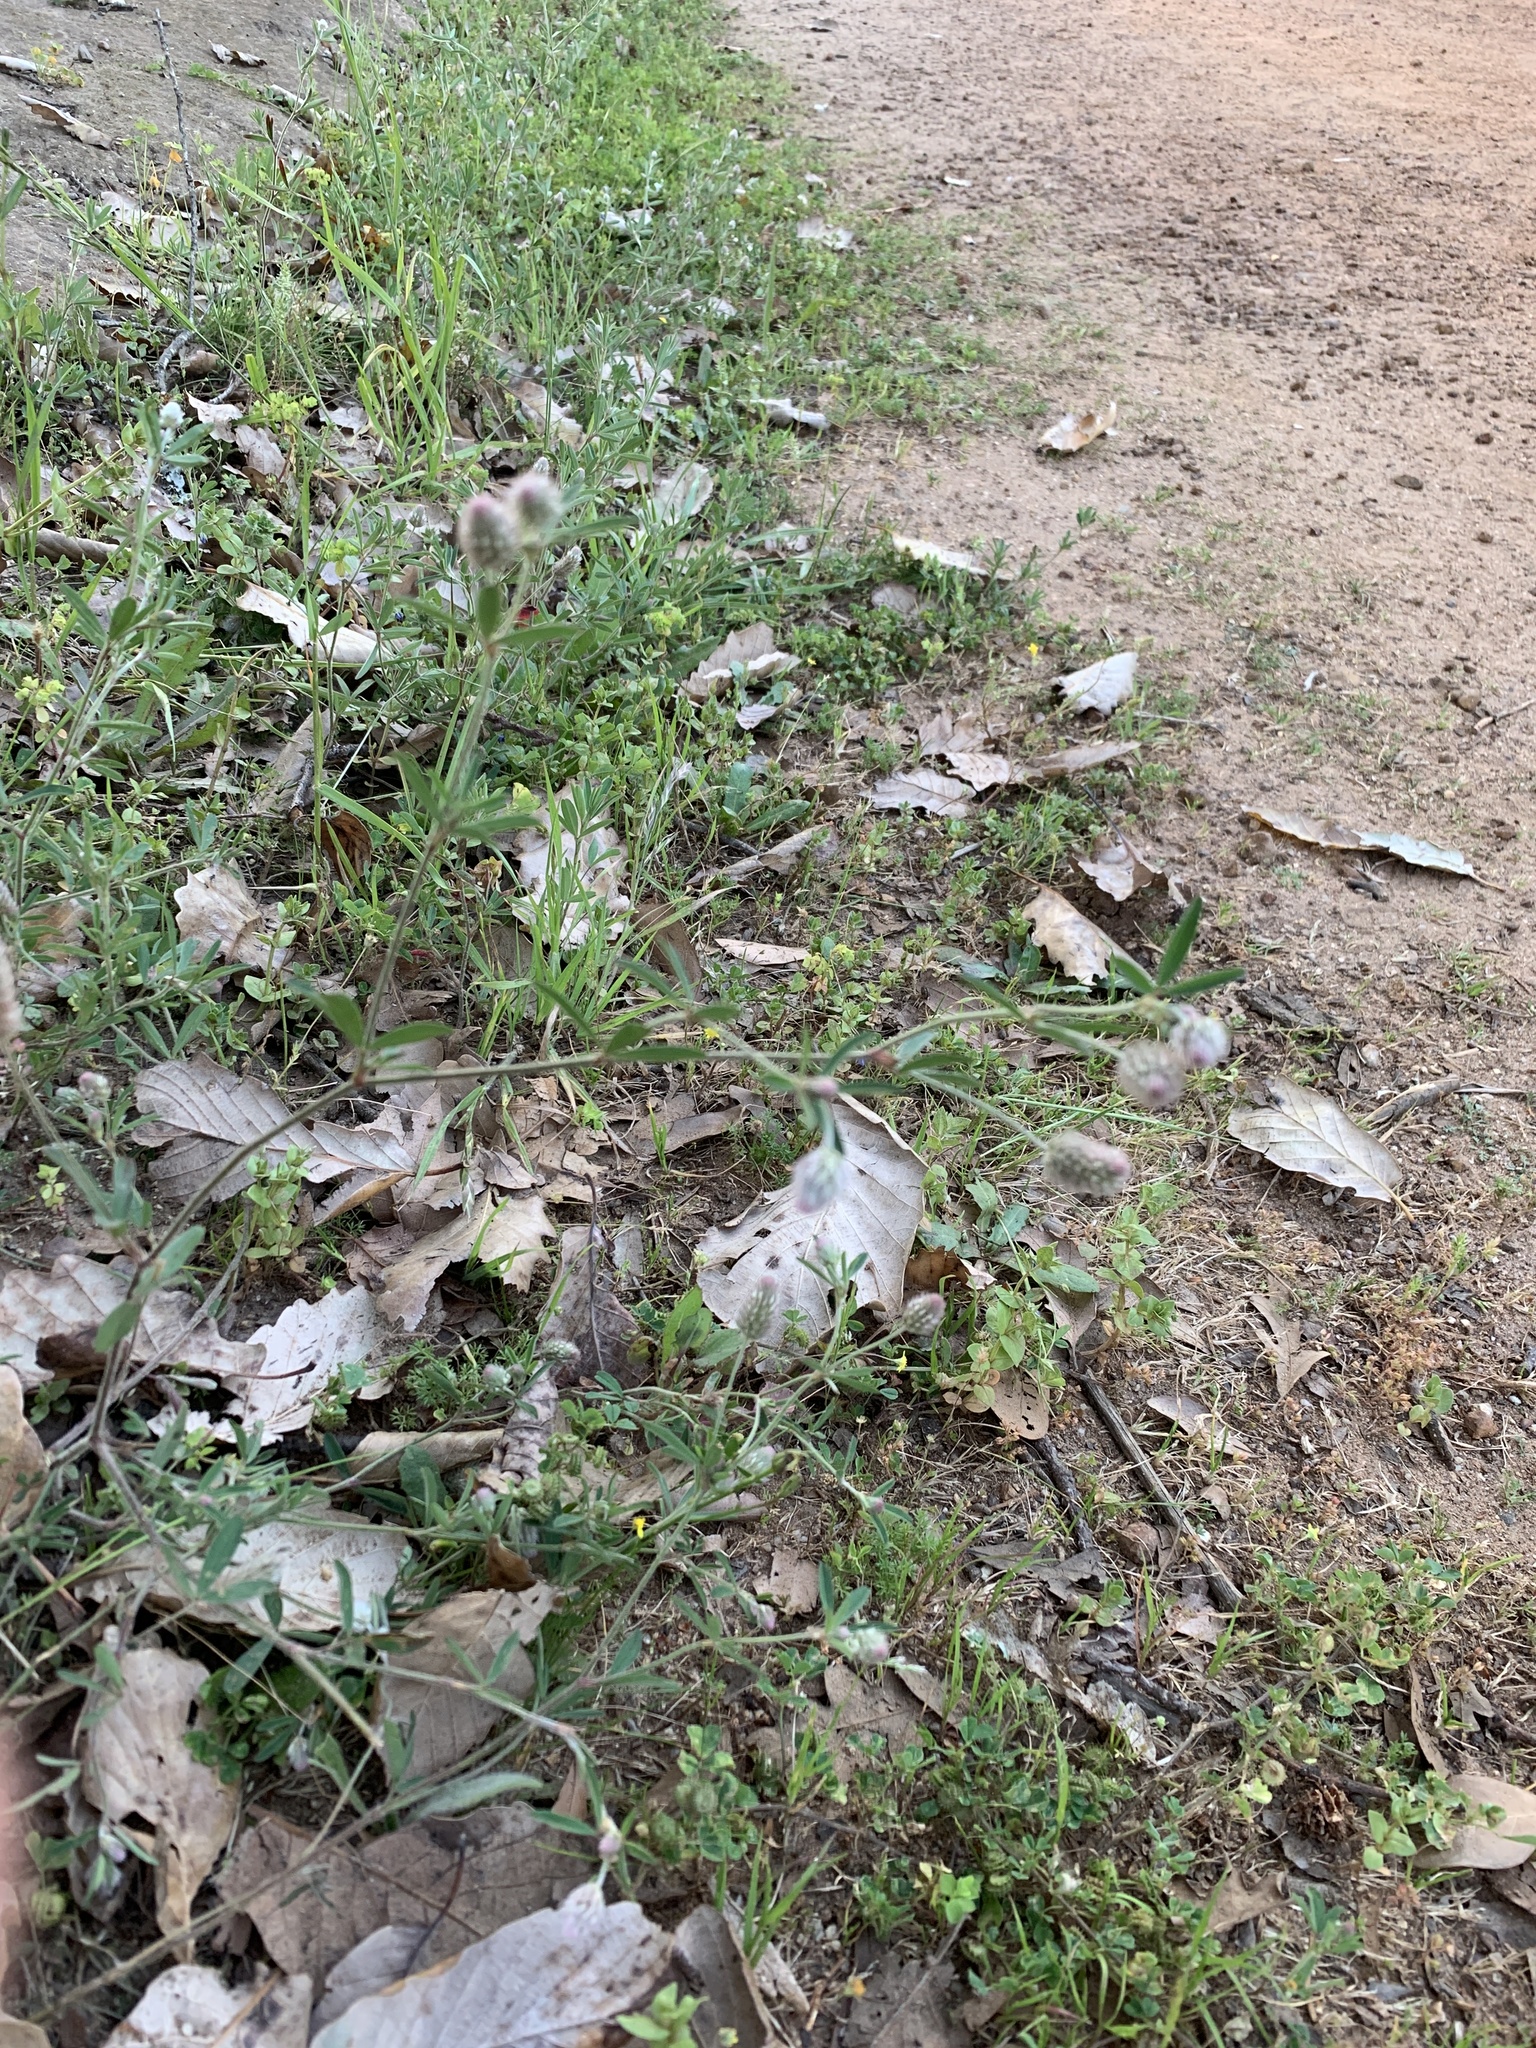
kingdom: Plantae
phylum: Tracheophyta
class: Magnoliopsida
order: Fabales
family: Fabaceae
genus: Trifolium
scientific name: Trifolium arvense
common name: Hare's-foot clover
